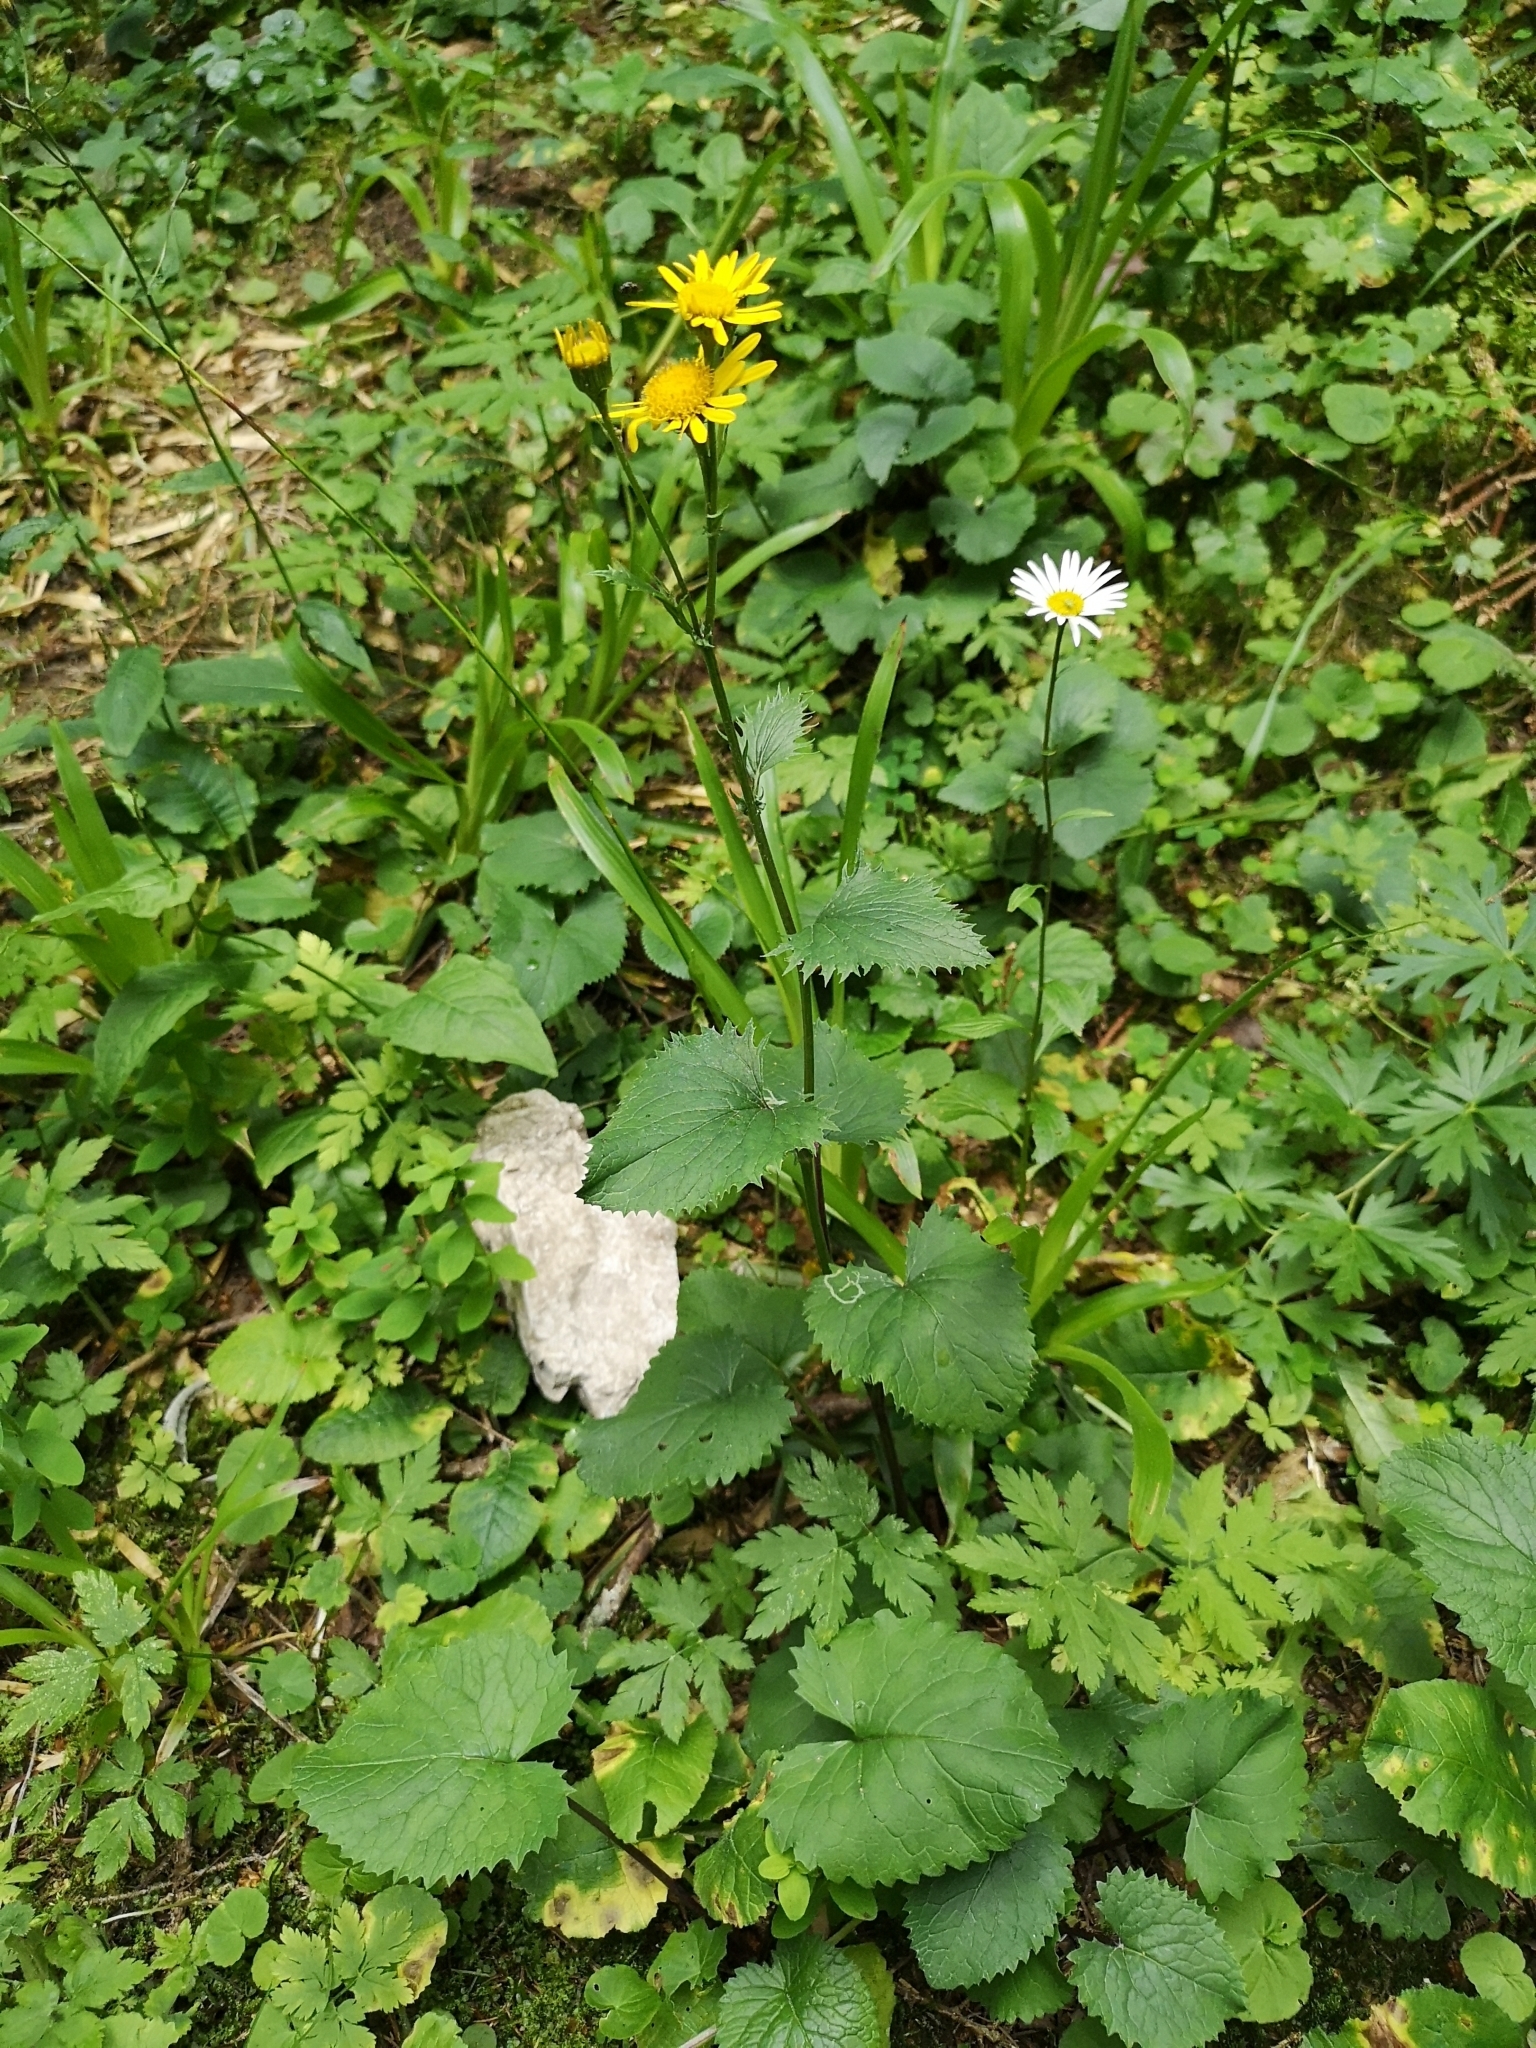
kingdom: Plantae
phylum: Tracheophyta
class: Magnoliopsida
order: Asterales
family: Asteraceae
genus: Jacobaea
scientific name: Jacobaea subalpina
